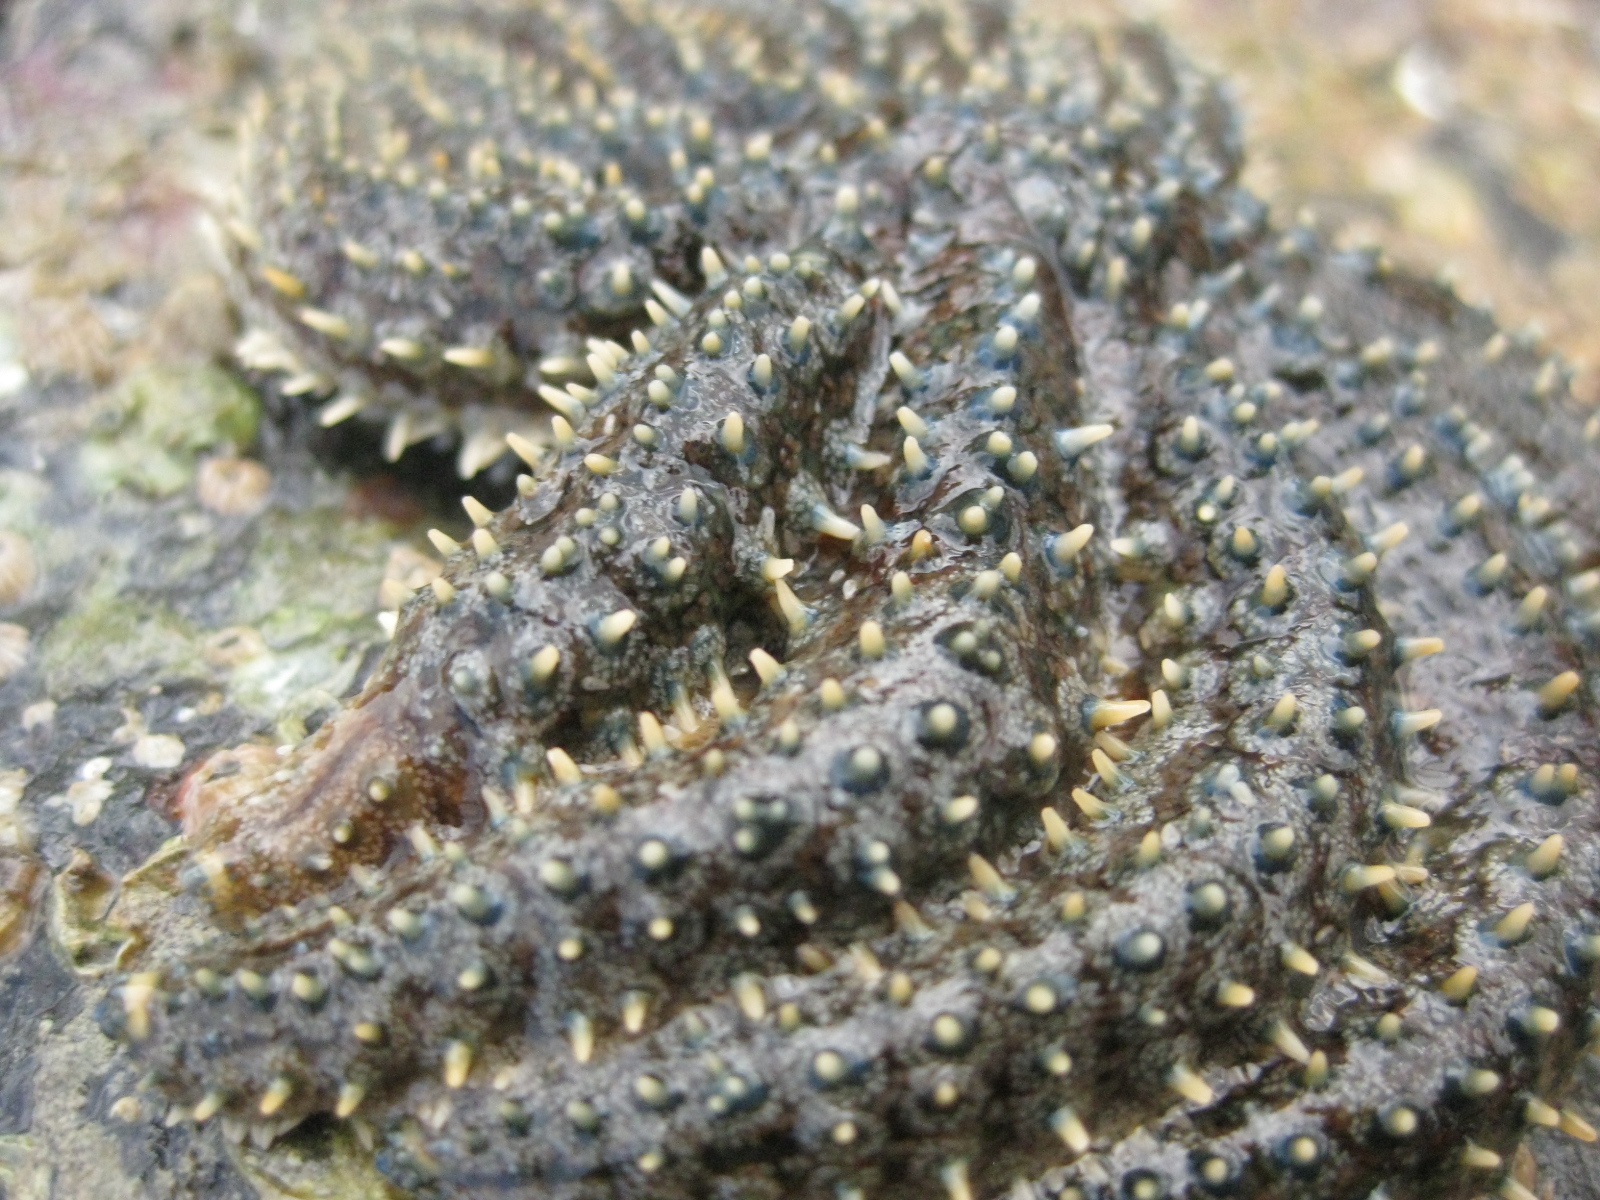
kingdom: Animalia
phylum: Echinodermata
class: Asteroidea
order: Forcipulatida
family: Asteriidae
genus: Coscinasterias
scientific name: Coscinasterias muricata
